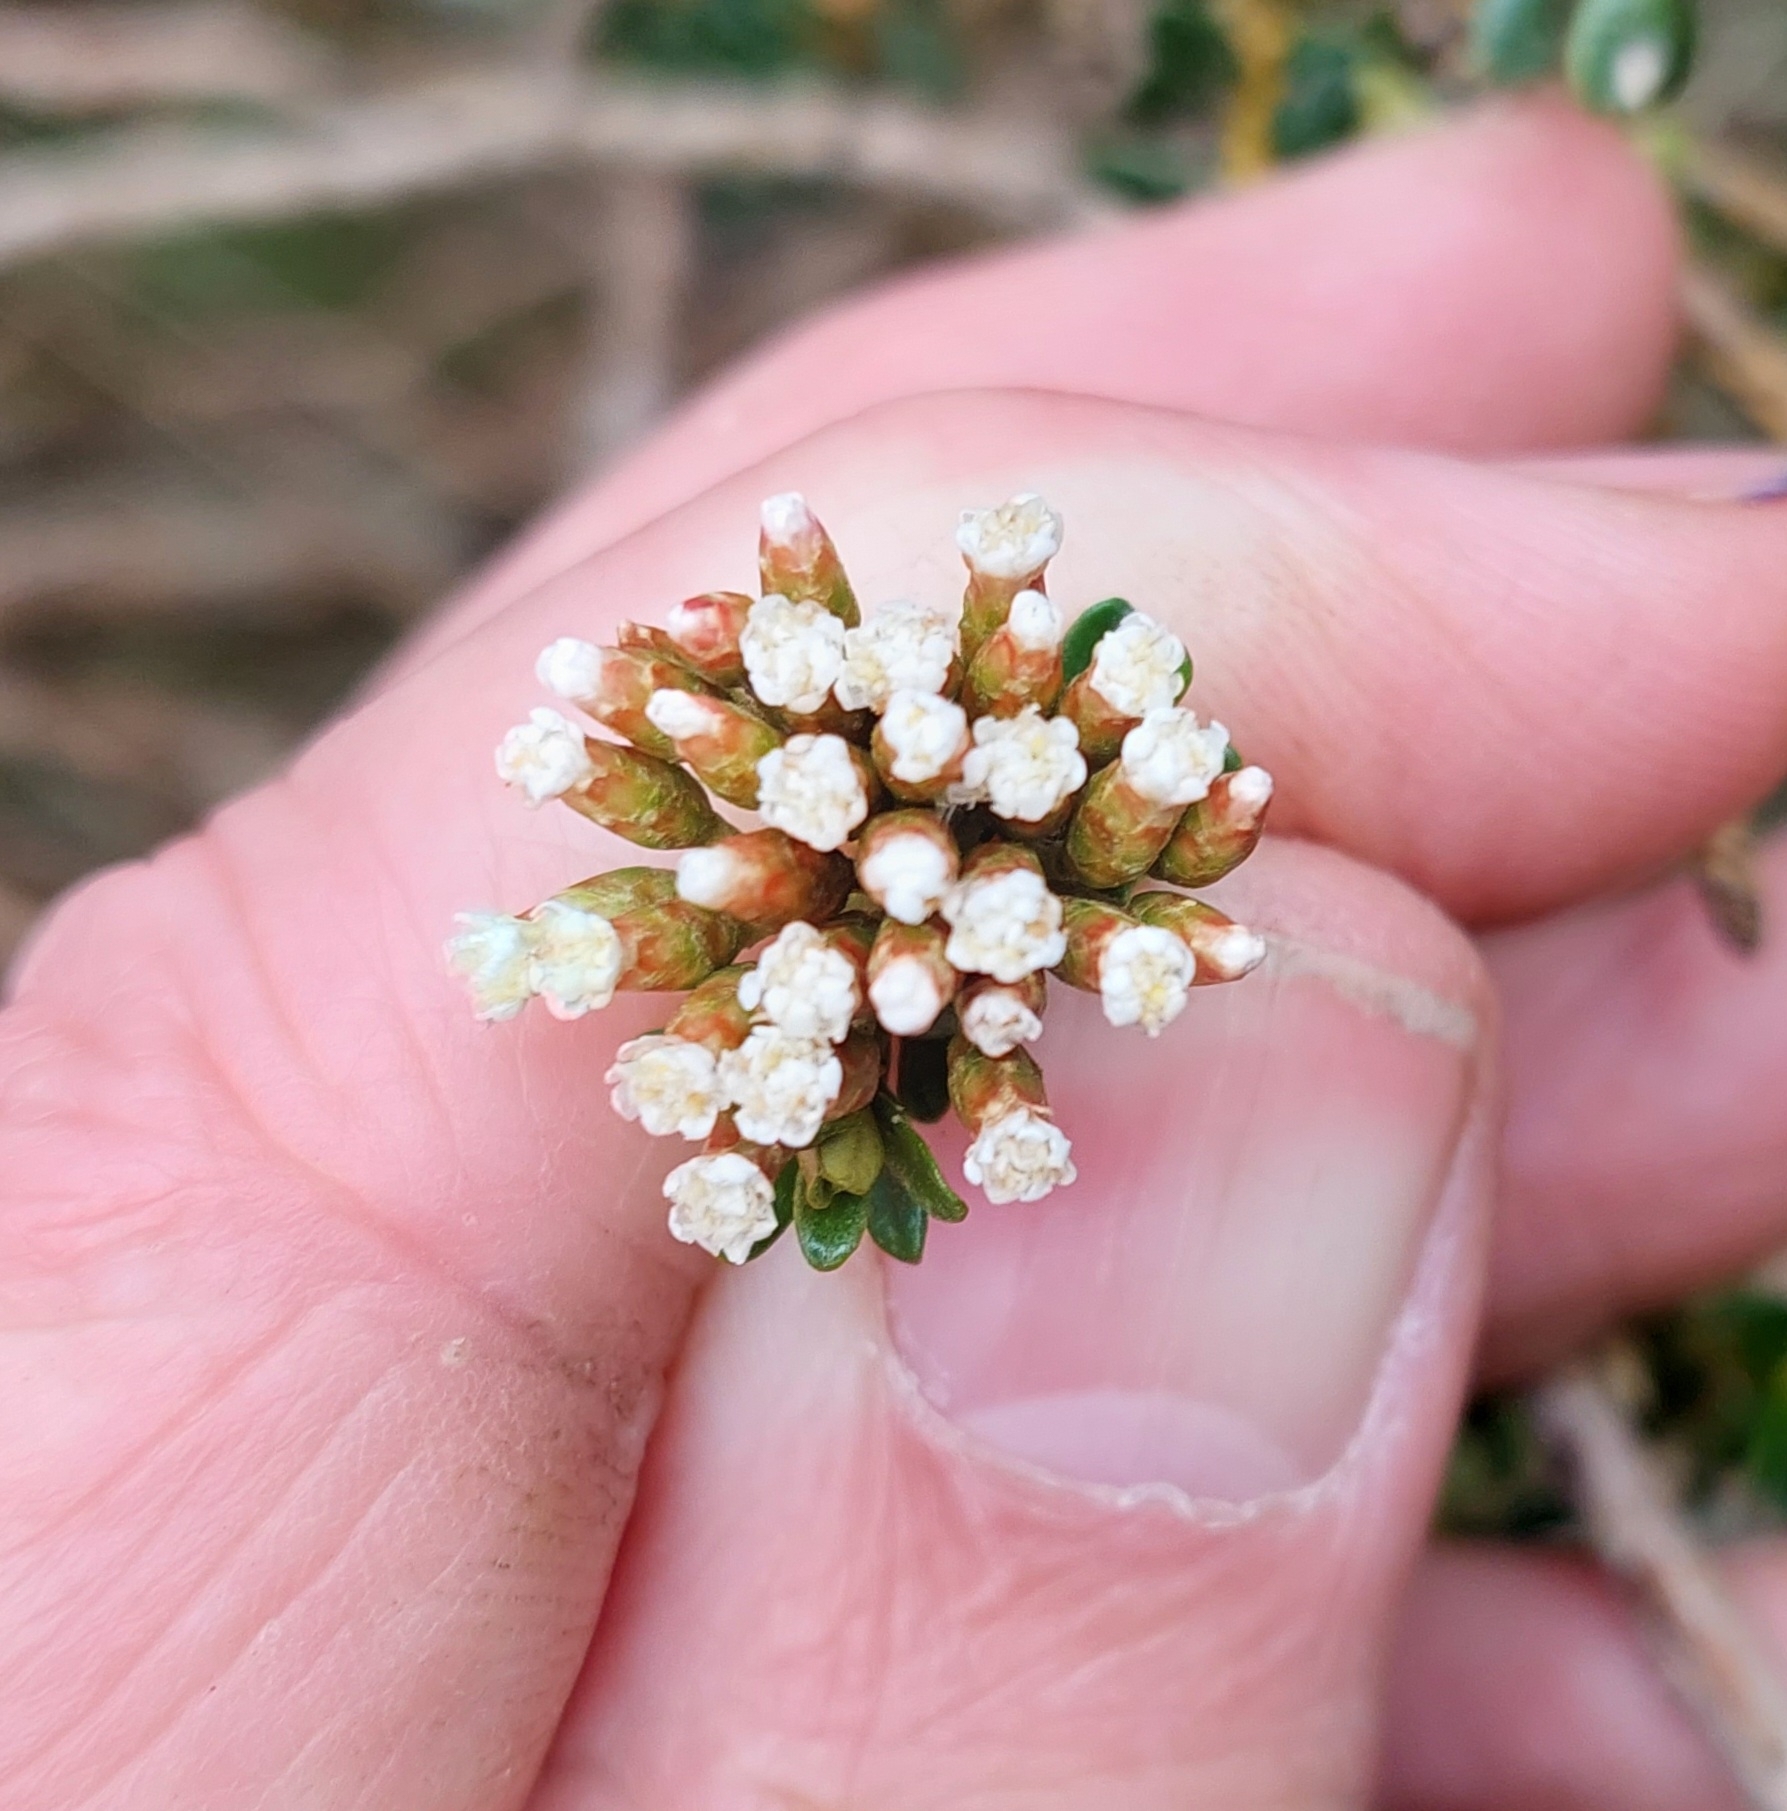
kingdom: Plantae
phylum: Tracheophyta
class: Magnoliopsida
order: Asterales
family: Asteraceae
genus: Ozothamnus
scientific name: Ozothamnus leptophyllus
